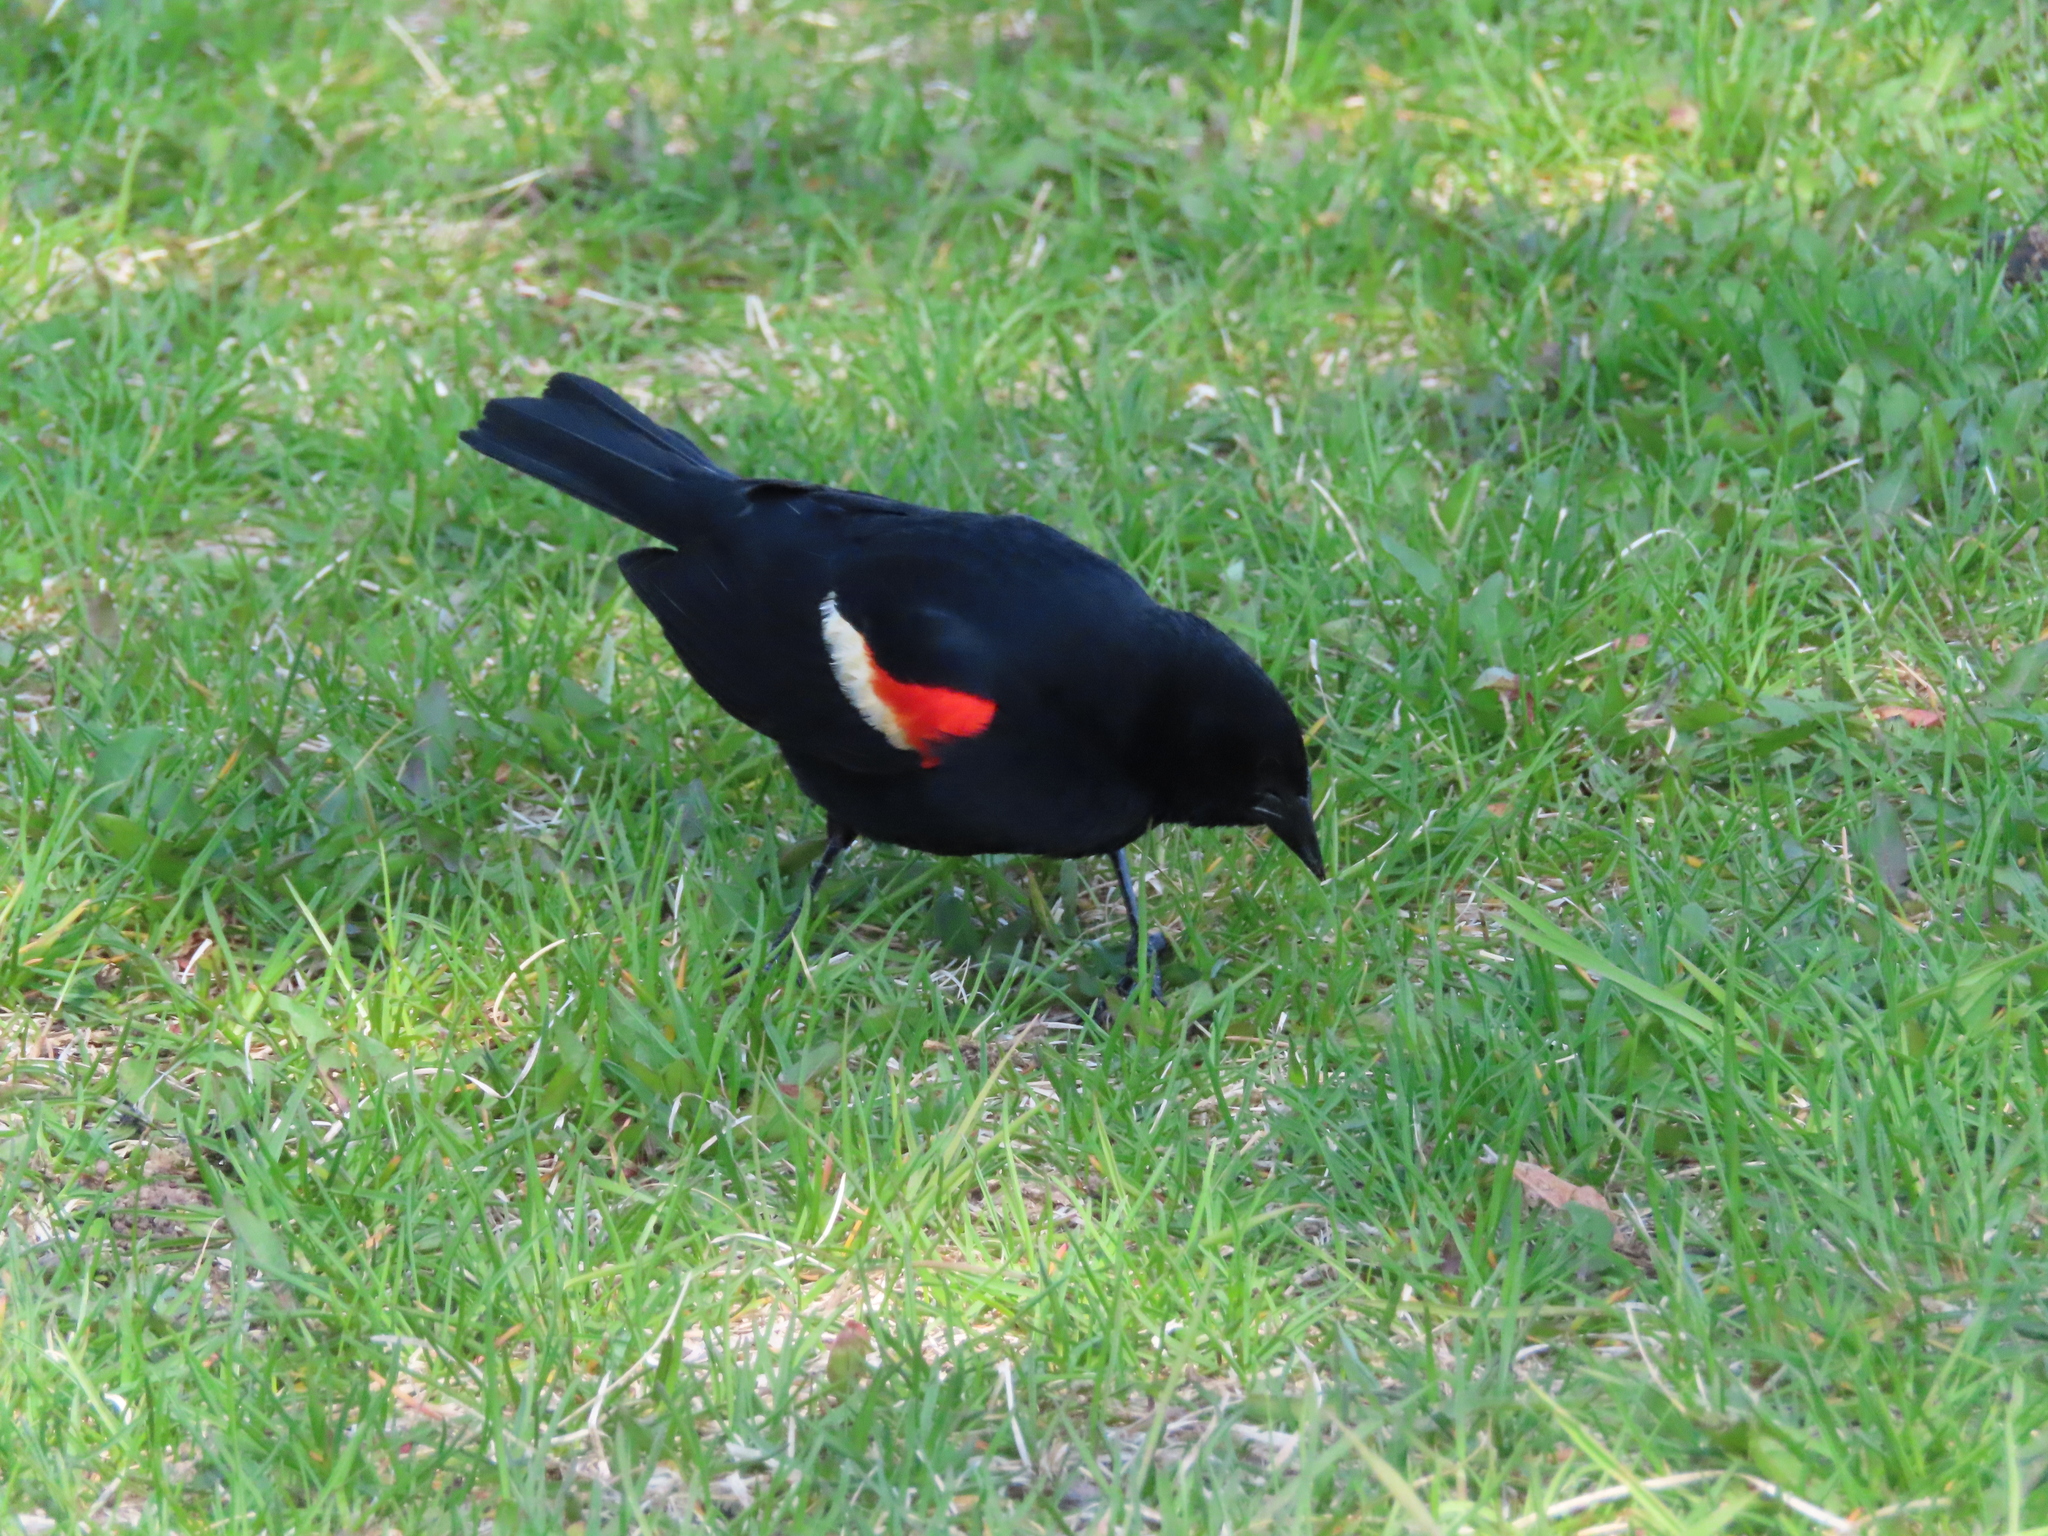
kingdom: Animalia
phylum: Chordata
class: Aves
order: Passeriformes
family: Icteridae
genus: Agelaius
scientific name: Agelaius phoeniceus
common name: Red-winged blackbird
